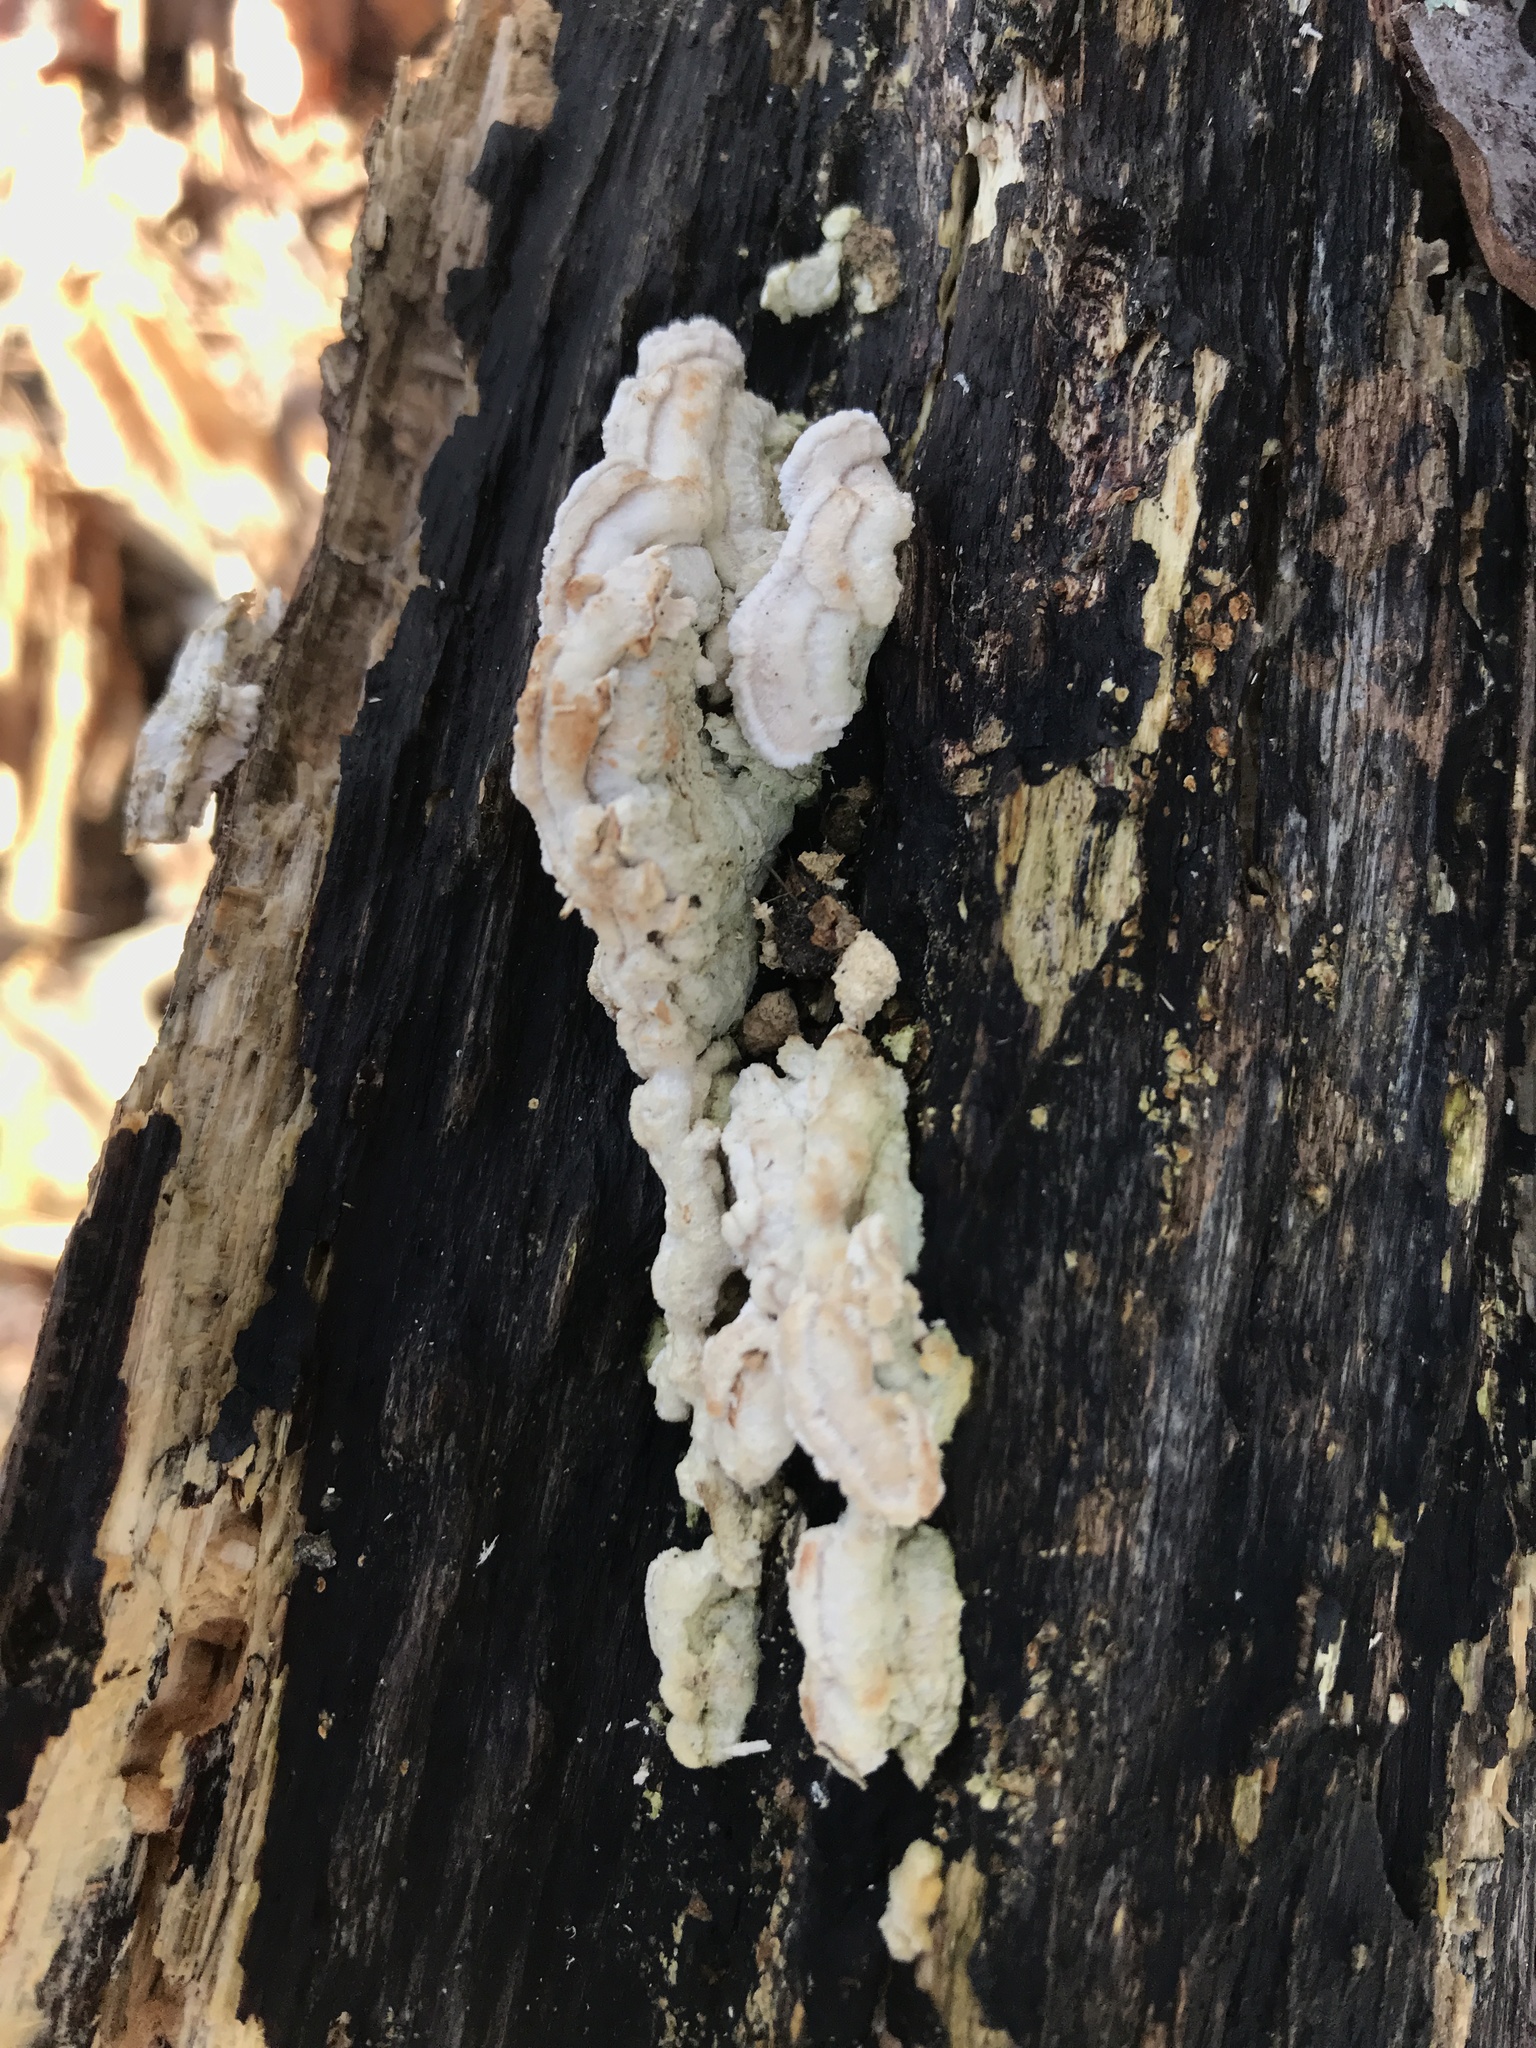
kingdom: Fungi
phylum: Basidiomycota
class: Agaricomycetes
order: Polyporales
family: Meruliaceae
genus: Irpiciporus
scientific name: Irpiciporus pachyodon
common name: Marshmallow polypore
